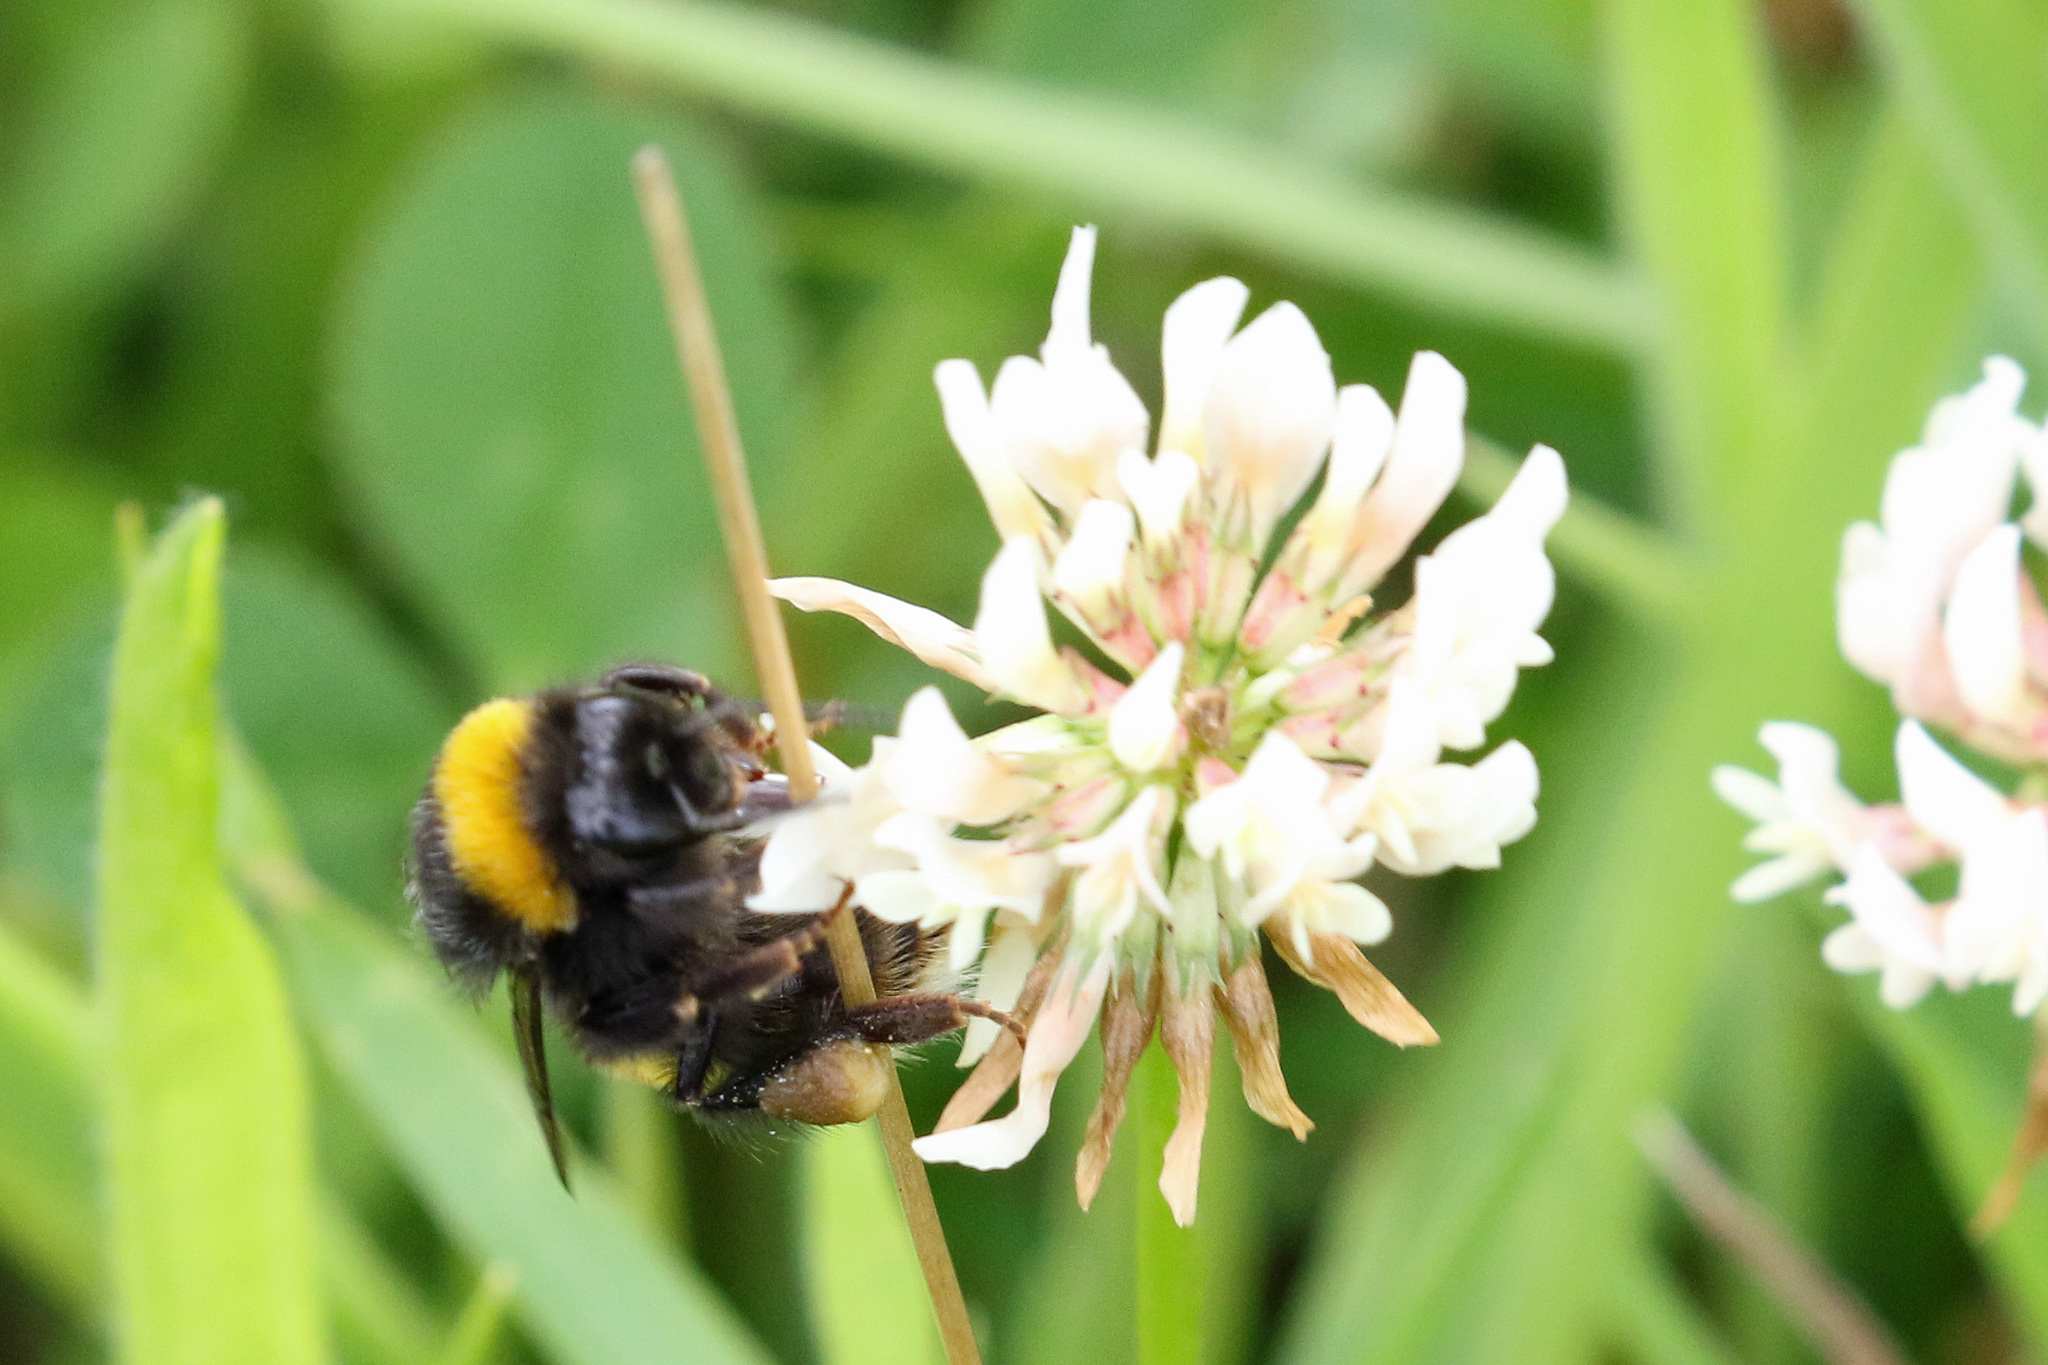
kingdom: Plantae
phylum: Tracheophyta
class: Magnoliopsida
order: Fabales
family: Fabaceae
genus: Trifolium
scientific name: Trifolium repens
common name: White clover
